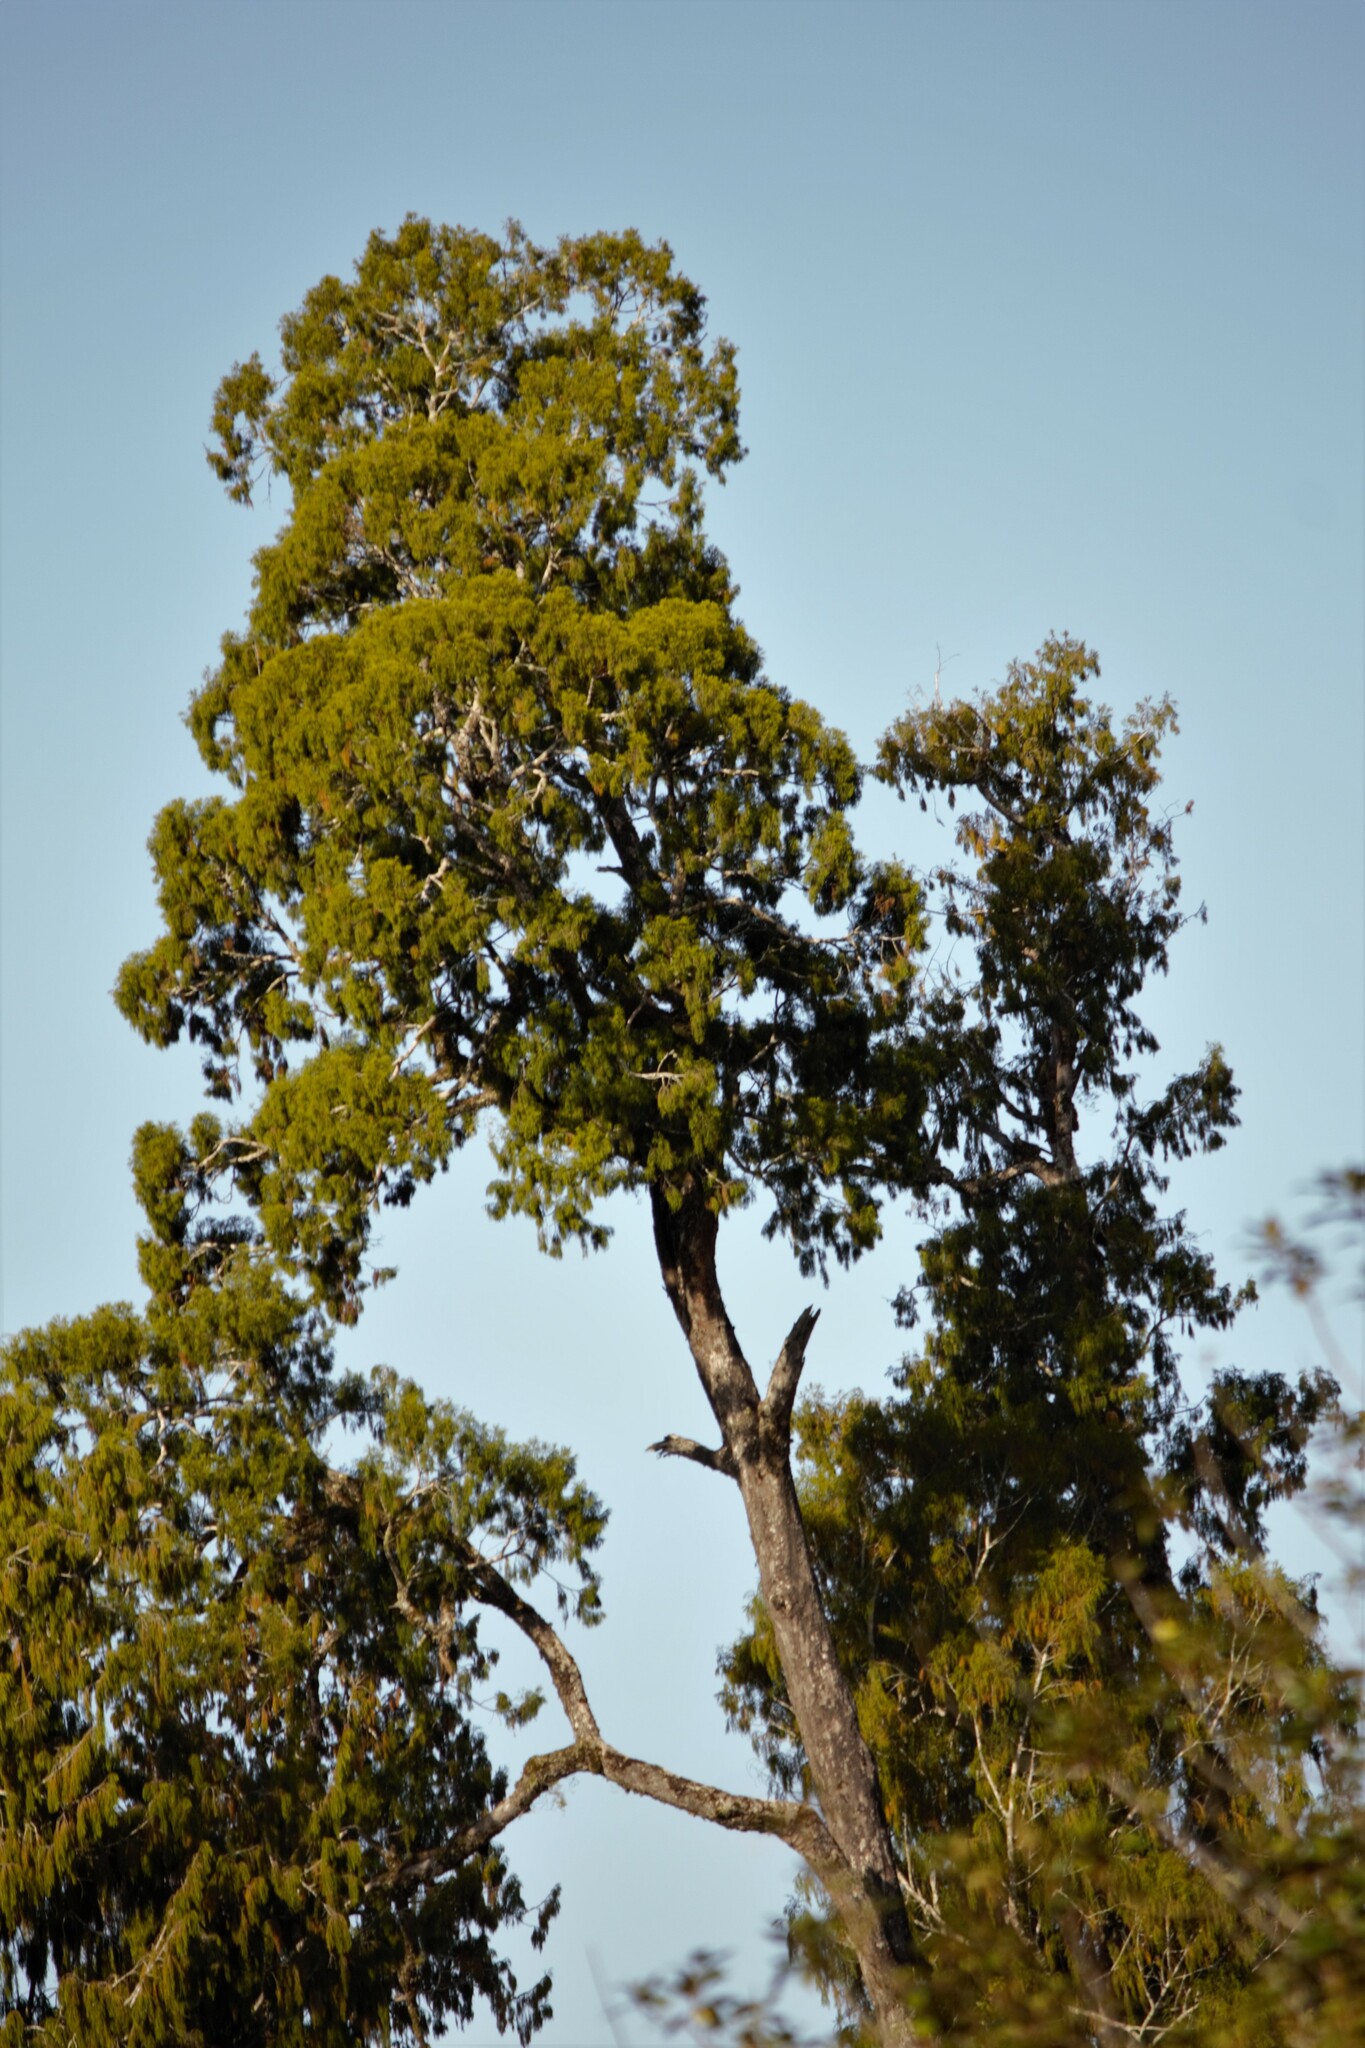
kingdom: Plantae
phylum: Tracheophyta
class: Pinopsida
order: Pinales
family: Podocarpaceae
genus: Dacrydium
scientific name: Dacrydium cupressinum
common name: Red pine
